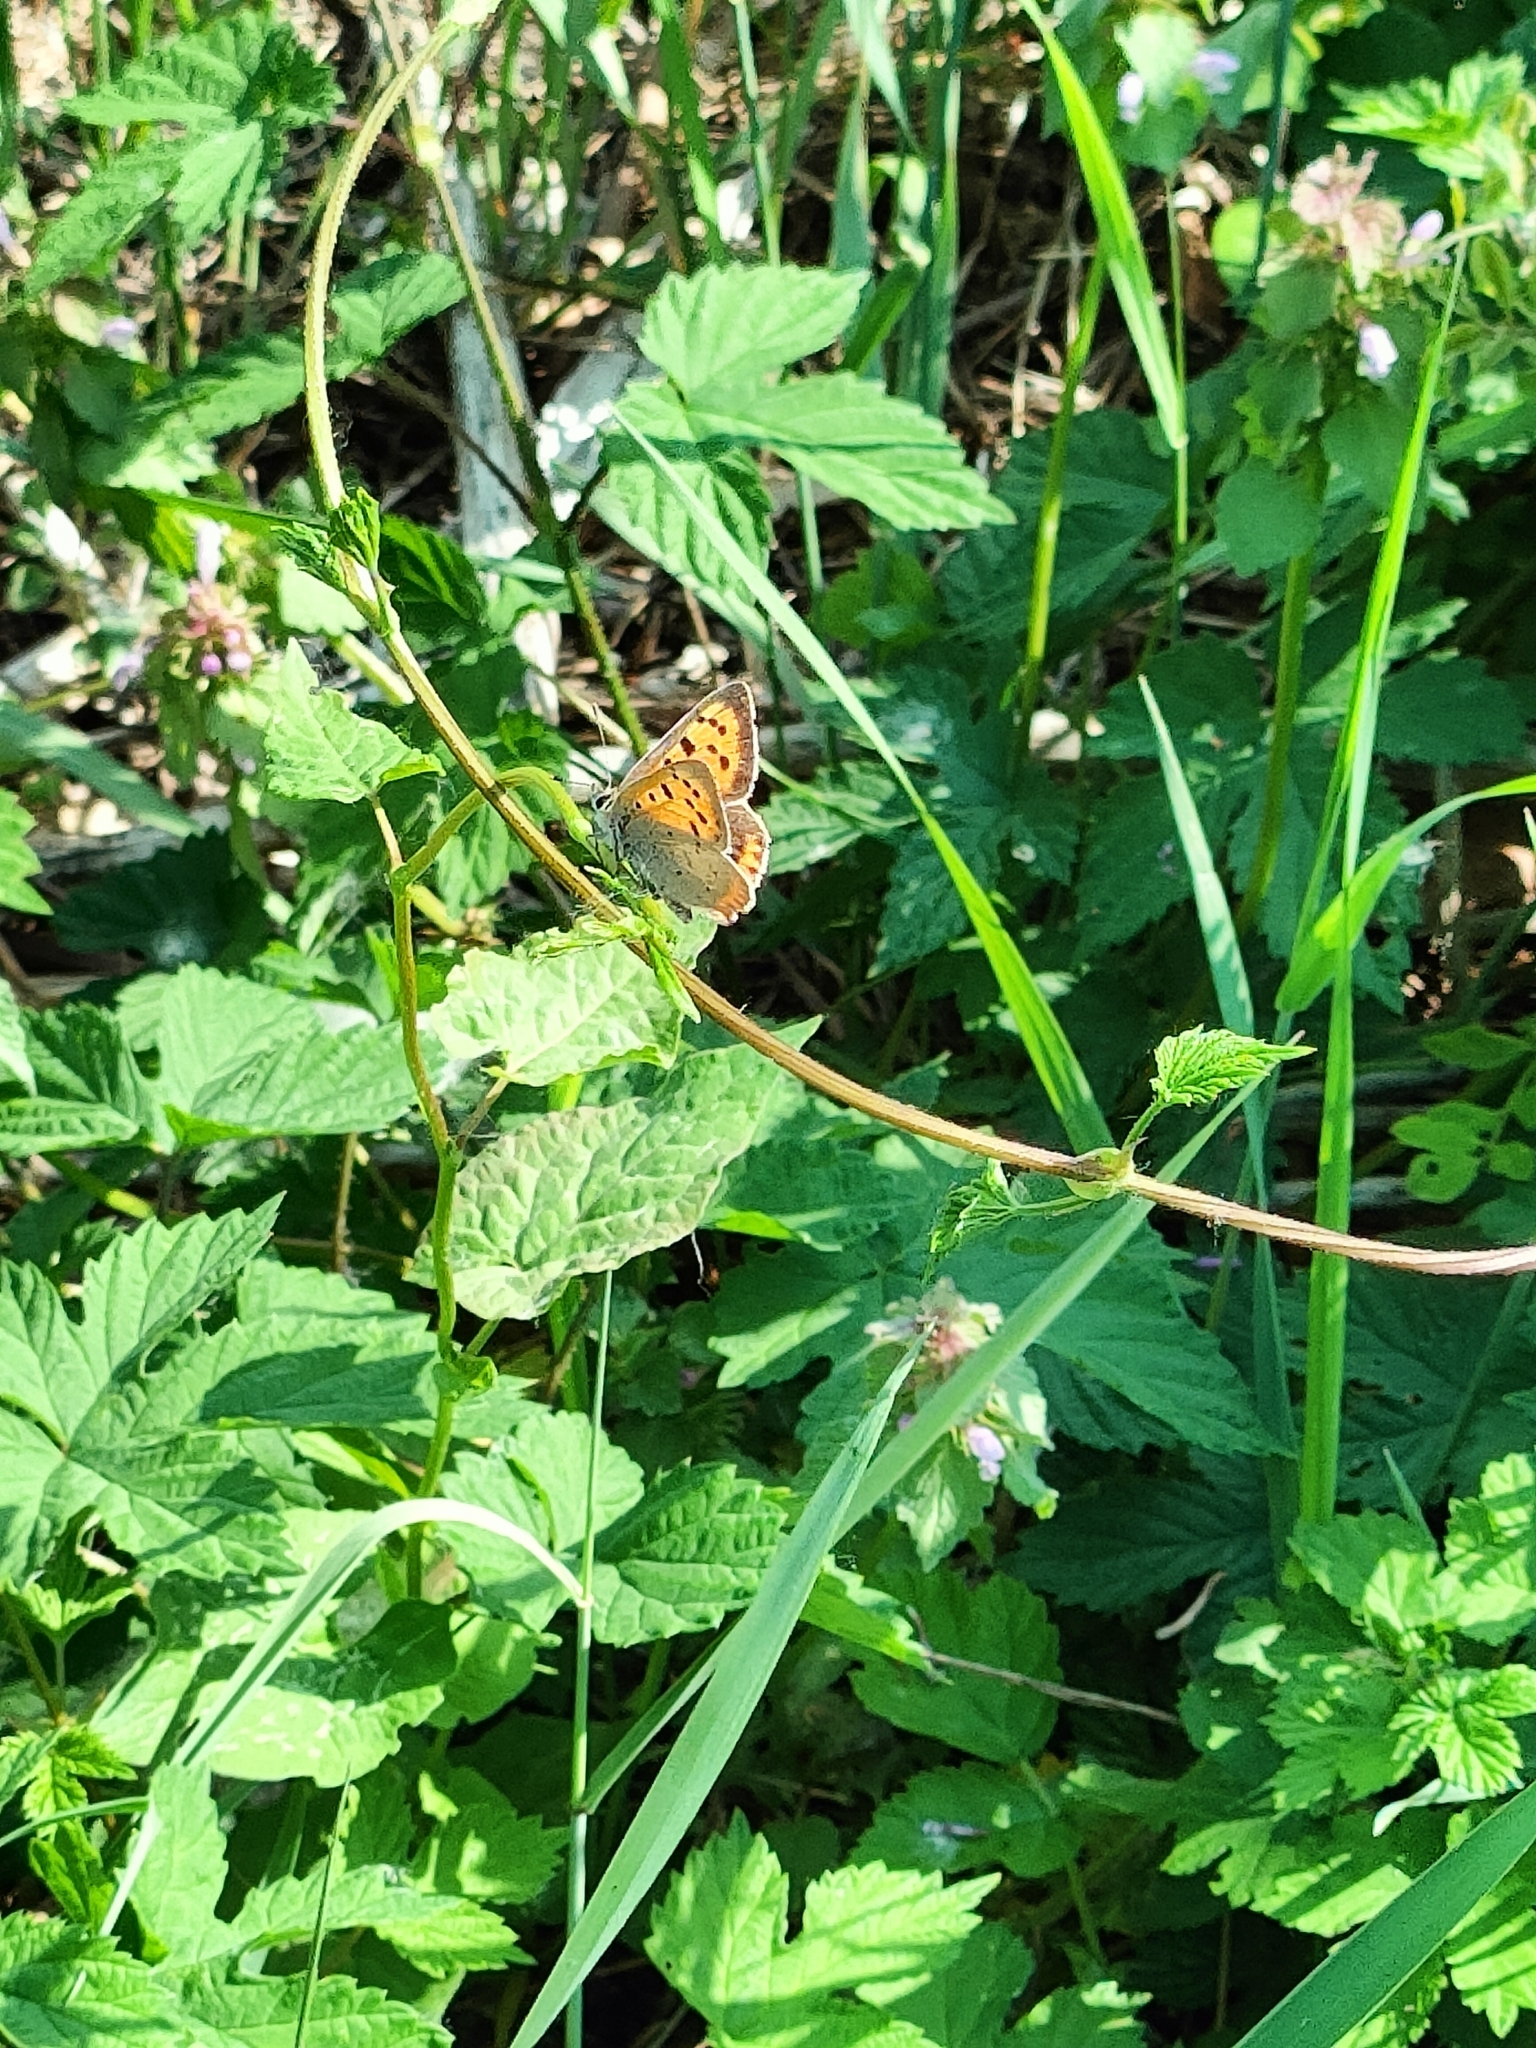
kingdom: Animalia
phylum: Arthropoda
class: Insecta
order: Lepidoptera
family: Lycaenidae
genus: Lycaena
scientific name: Lycaena phlaeas
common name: Small copper
